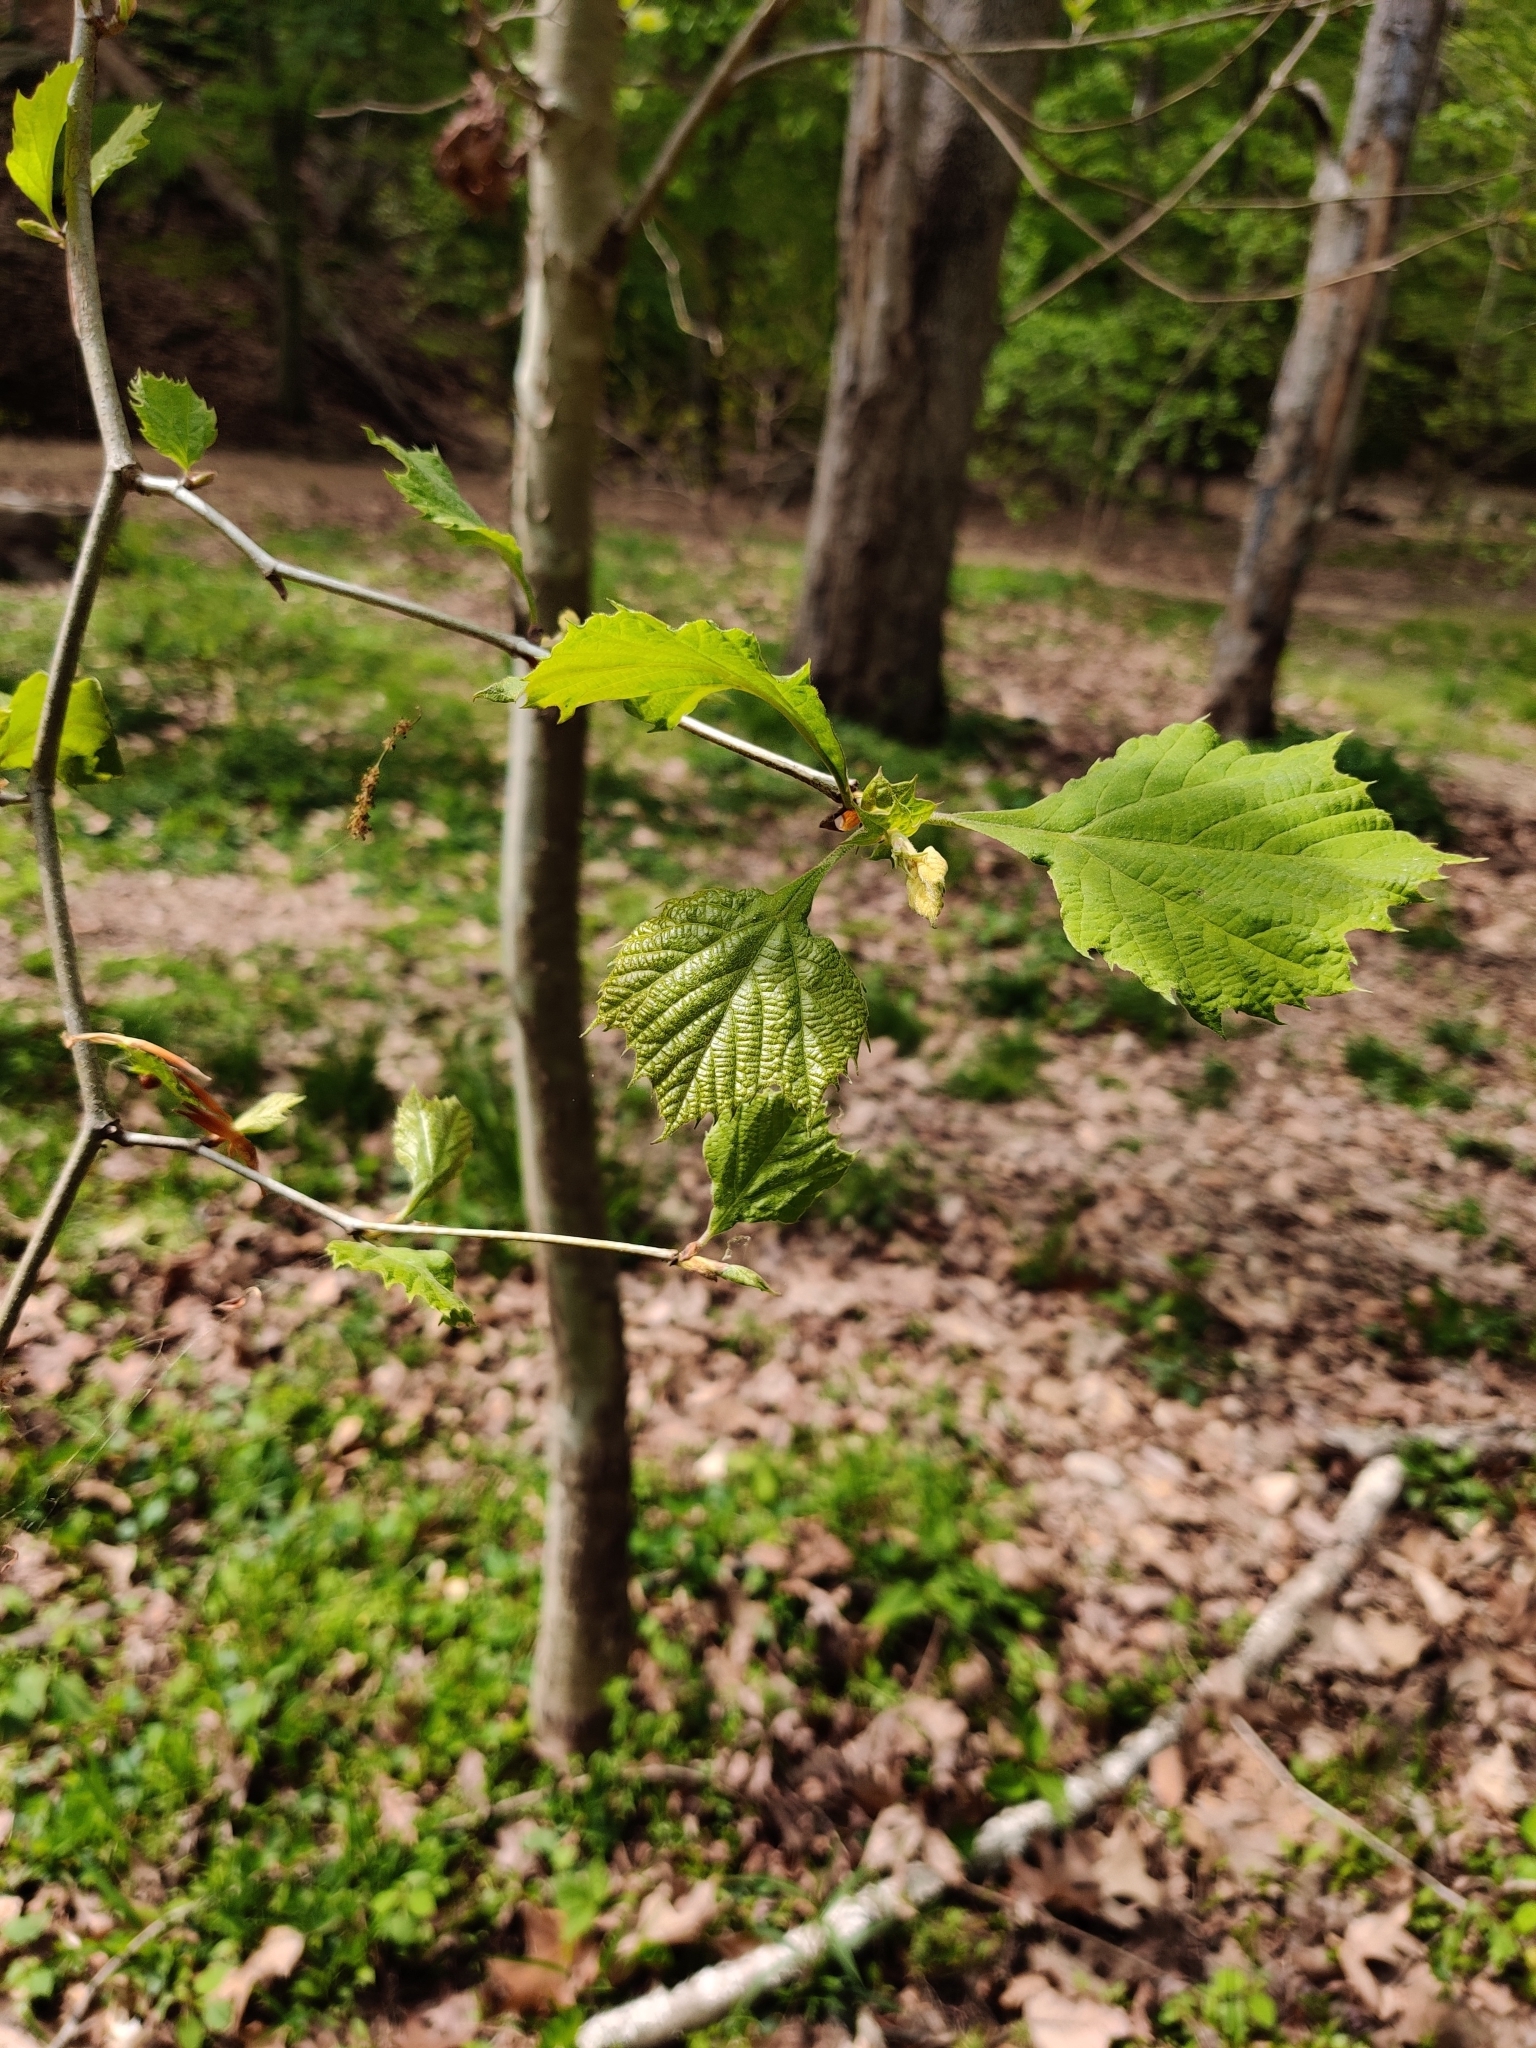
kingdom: Plantae
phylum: Tracheophyta
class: Magnoliopsida
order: Proteales
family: Platanaceae
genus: Platanus
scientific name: Platanus occidentalis
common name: American sycamore
